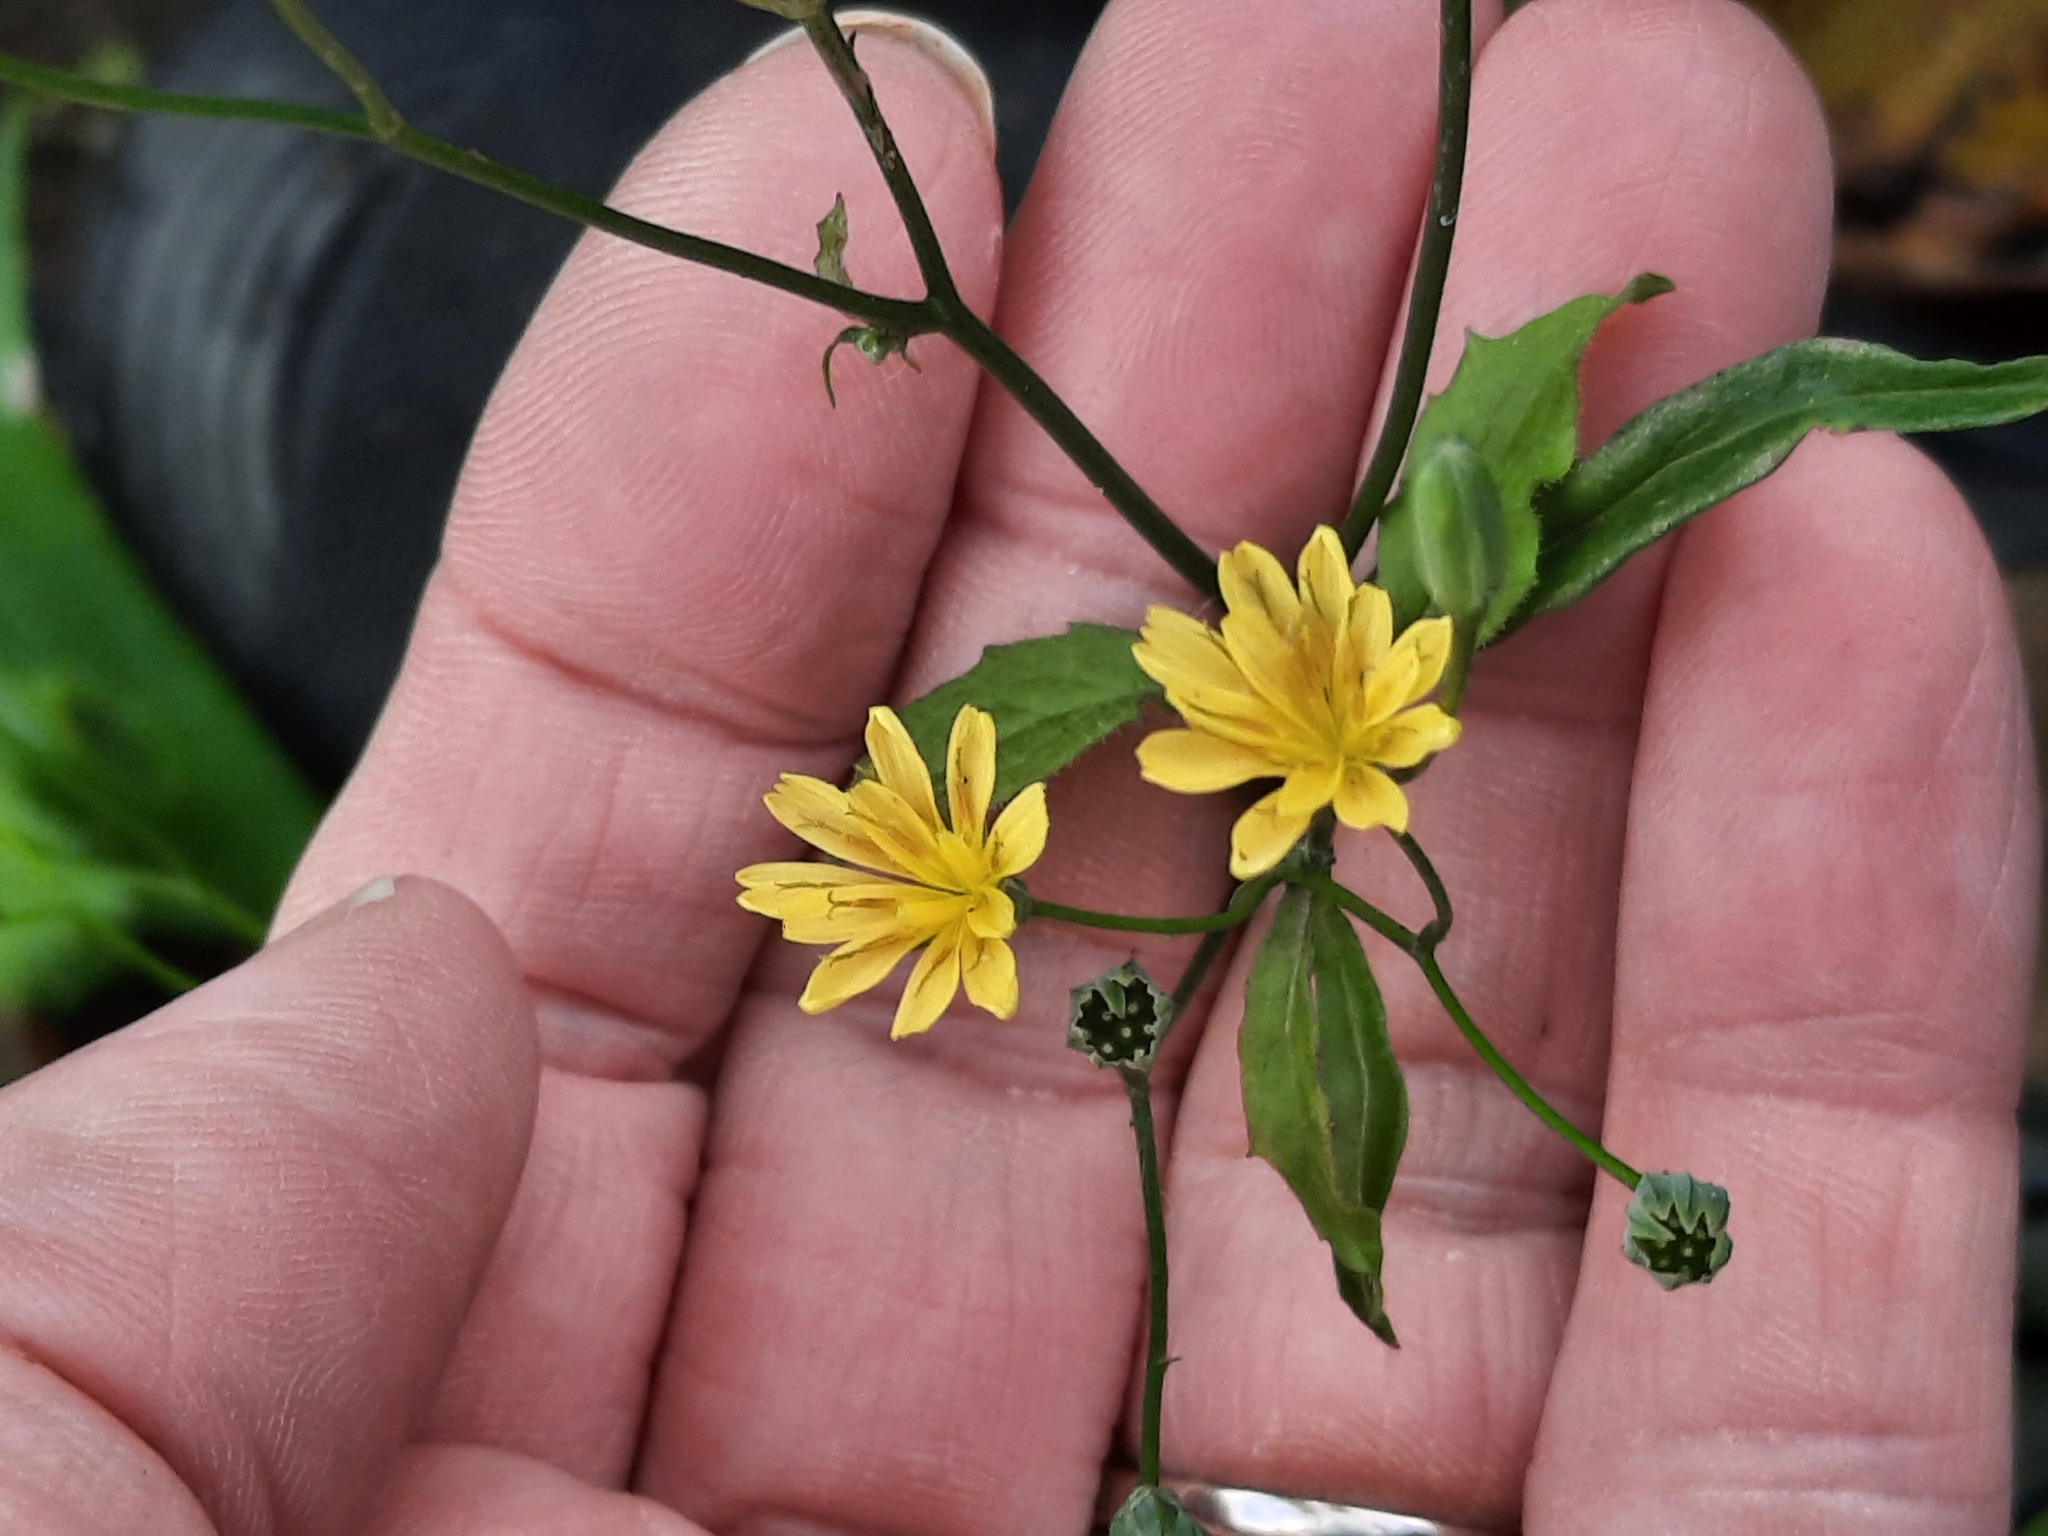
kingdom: Plantae
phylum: Tracheophyta
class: Magnoliopsida
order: Asterales
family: Asteraceae
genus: Lapsana
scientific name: Lapsana communis
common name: Nipplewort
